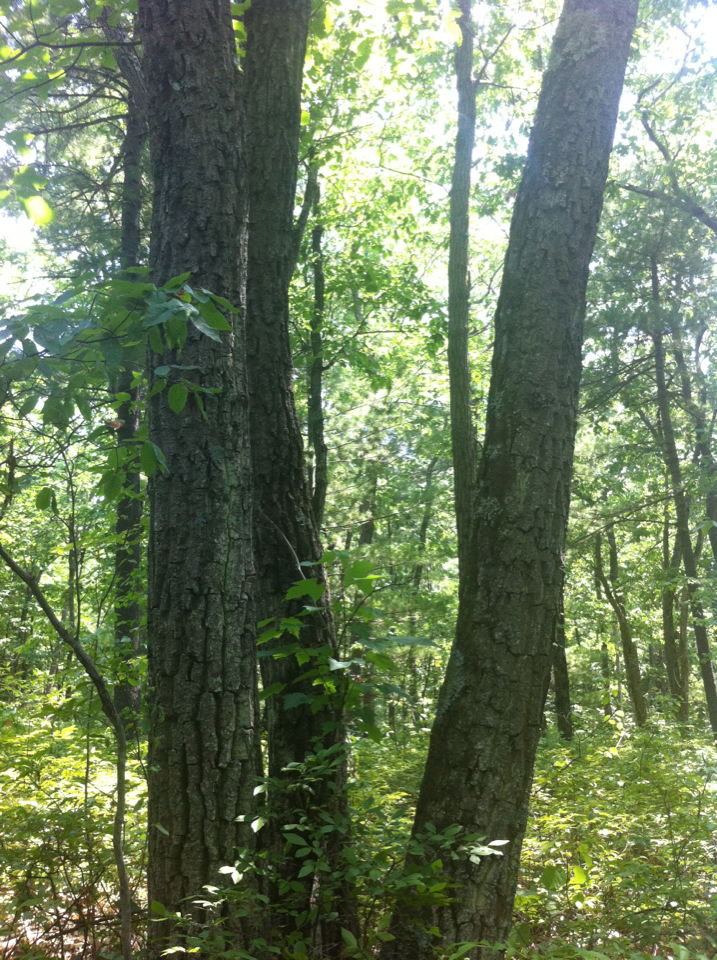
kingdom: Plantae
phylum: Tracheophyta
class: Magnoliopsida
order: Fagales
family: Fagaceae
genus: Quercus
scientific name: Quercus montana
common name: Chestnut oak
